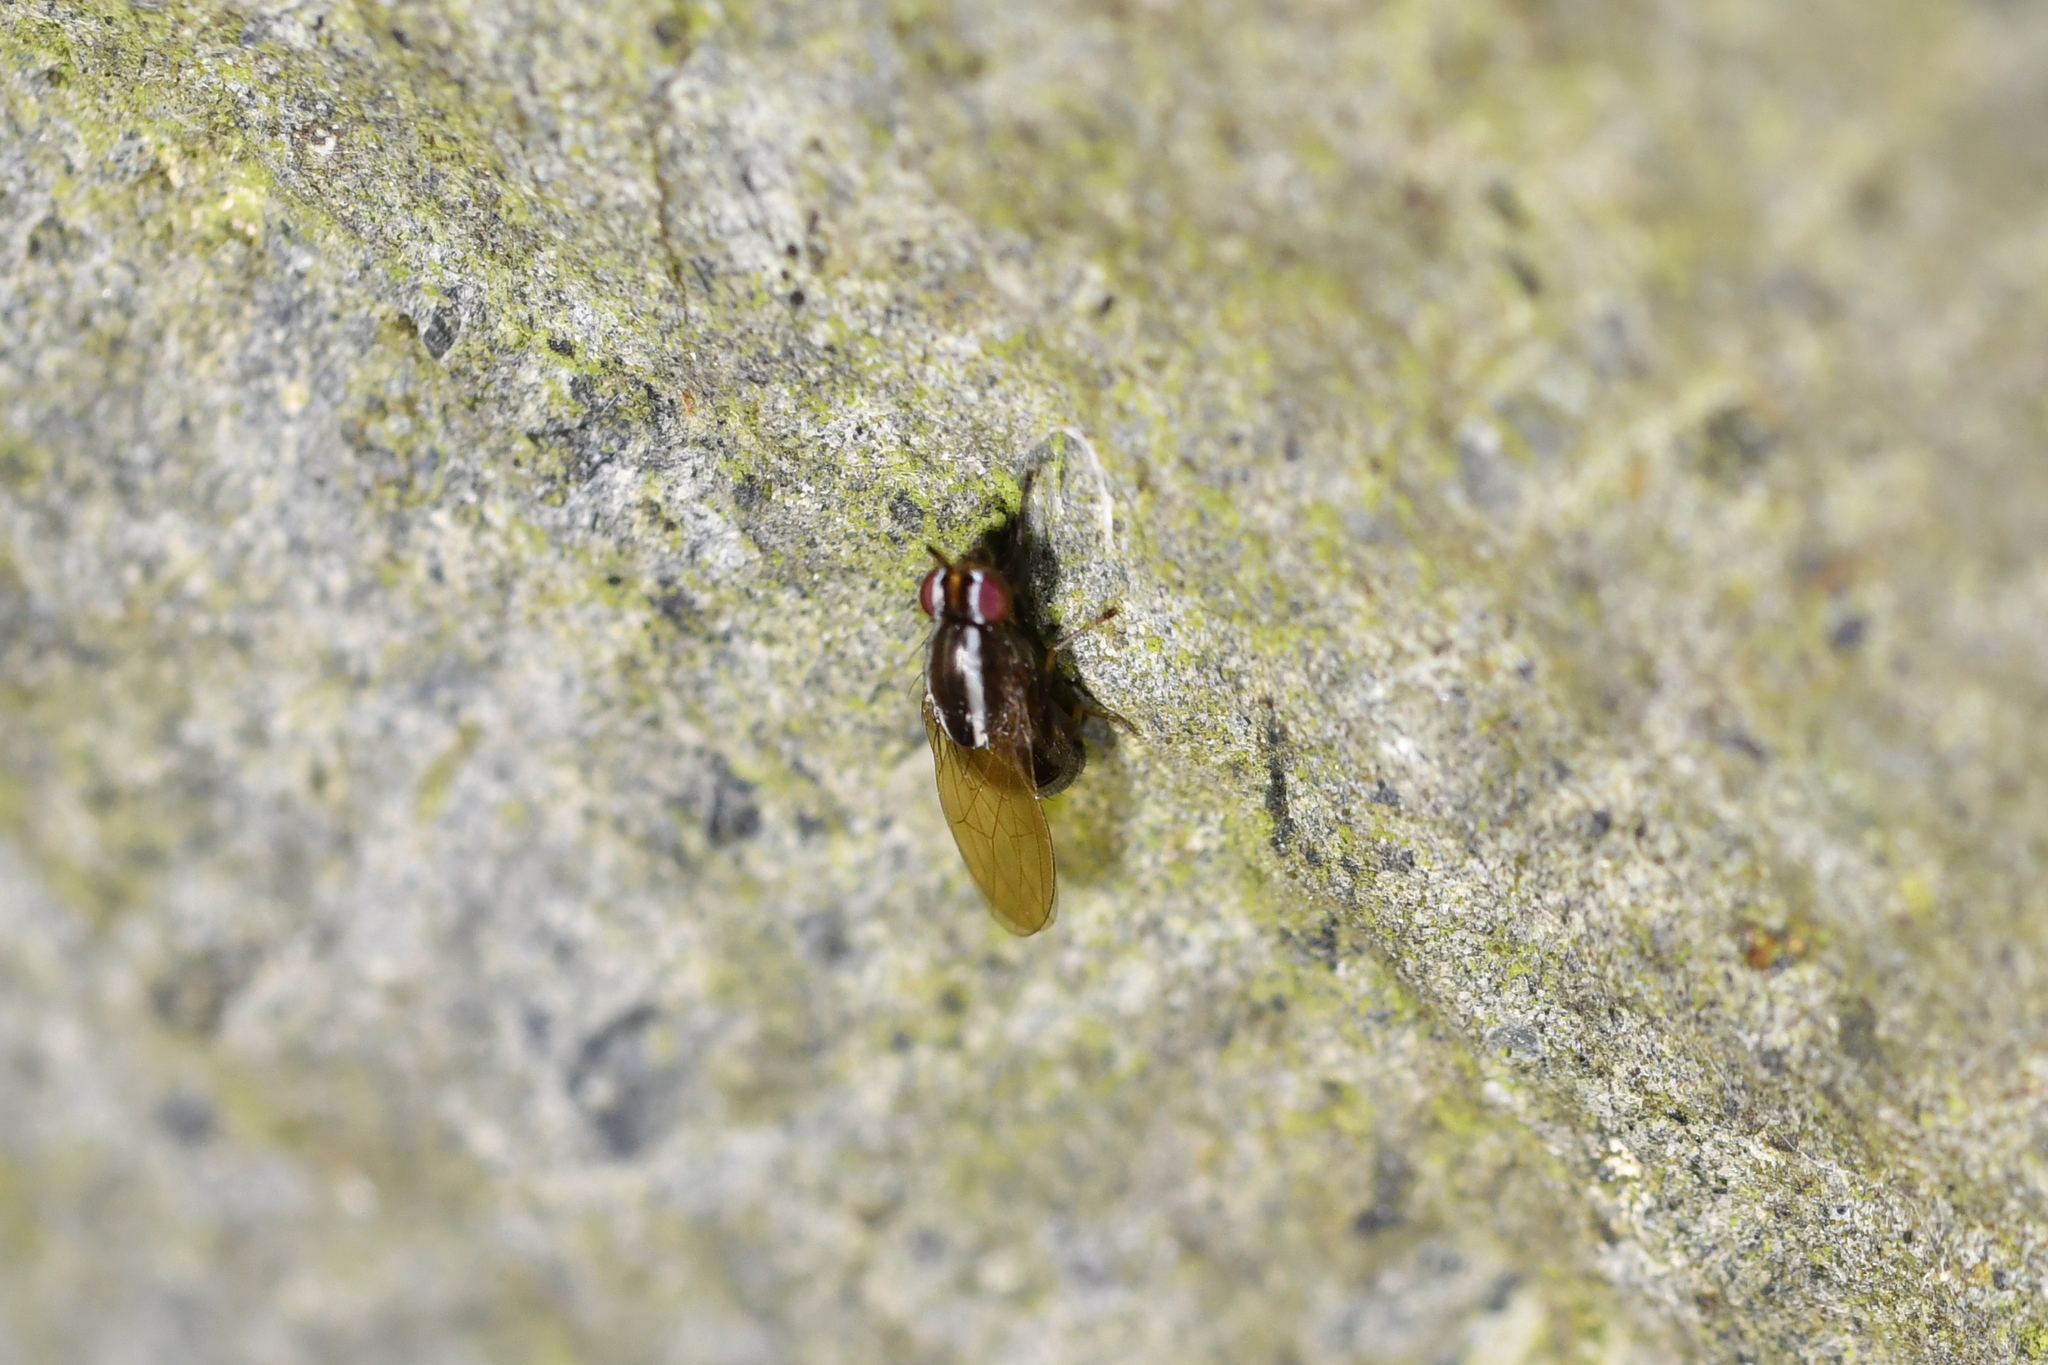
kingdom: Animalia
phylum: Arthropoda
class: Insecta
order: Diptera
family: Lauxaniidae
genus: Poecilohetaerella
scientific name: Poecilohetaerella dubiosa
